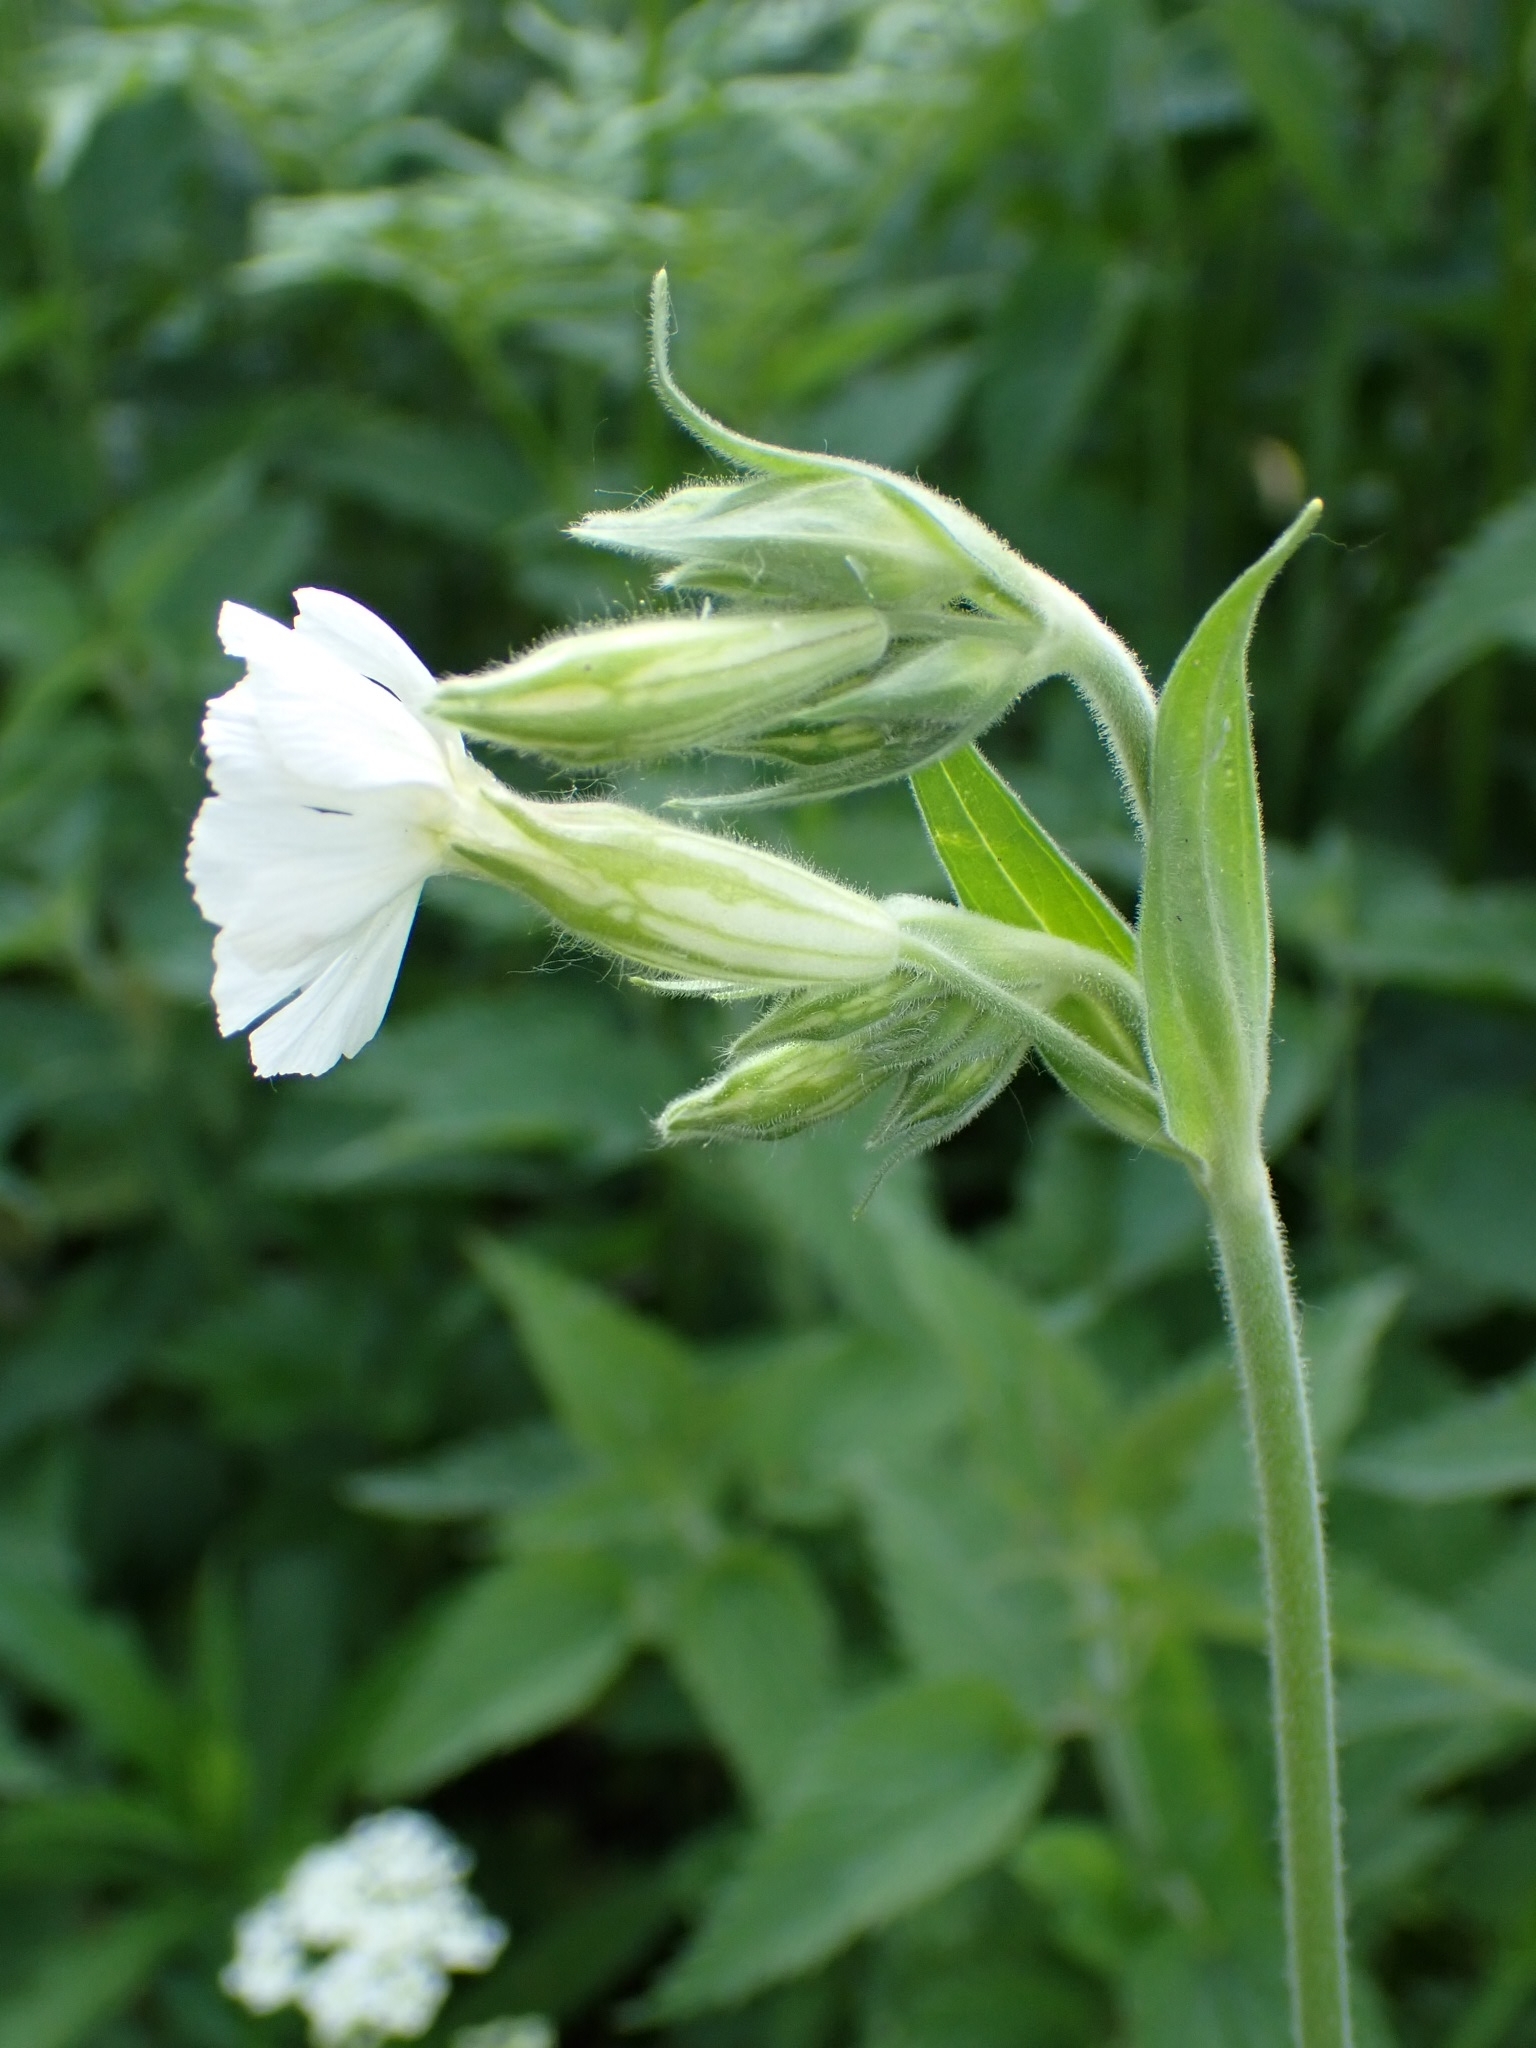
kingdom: Plantae
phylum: Tracheophyta
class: Magnoliopsida
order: Caryophyllales
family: Caryophyllaceae
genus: Silene
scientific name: Silene latifolia
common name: White campion
